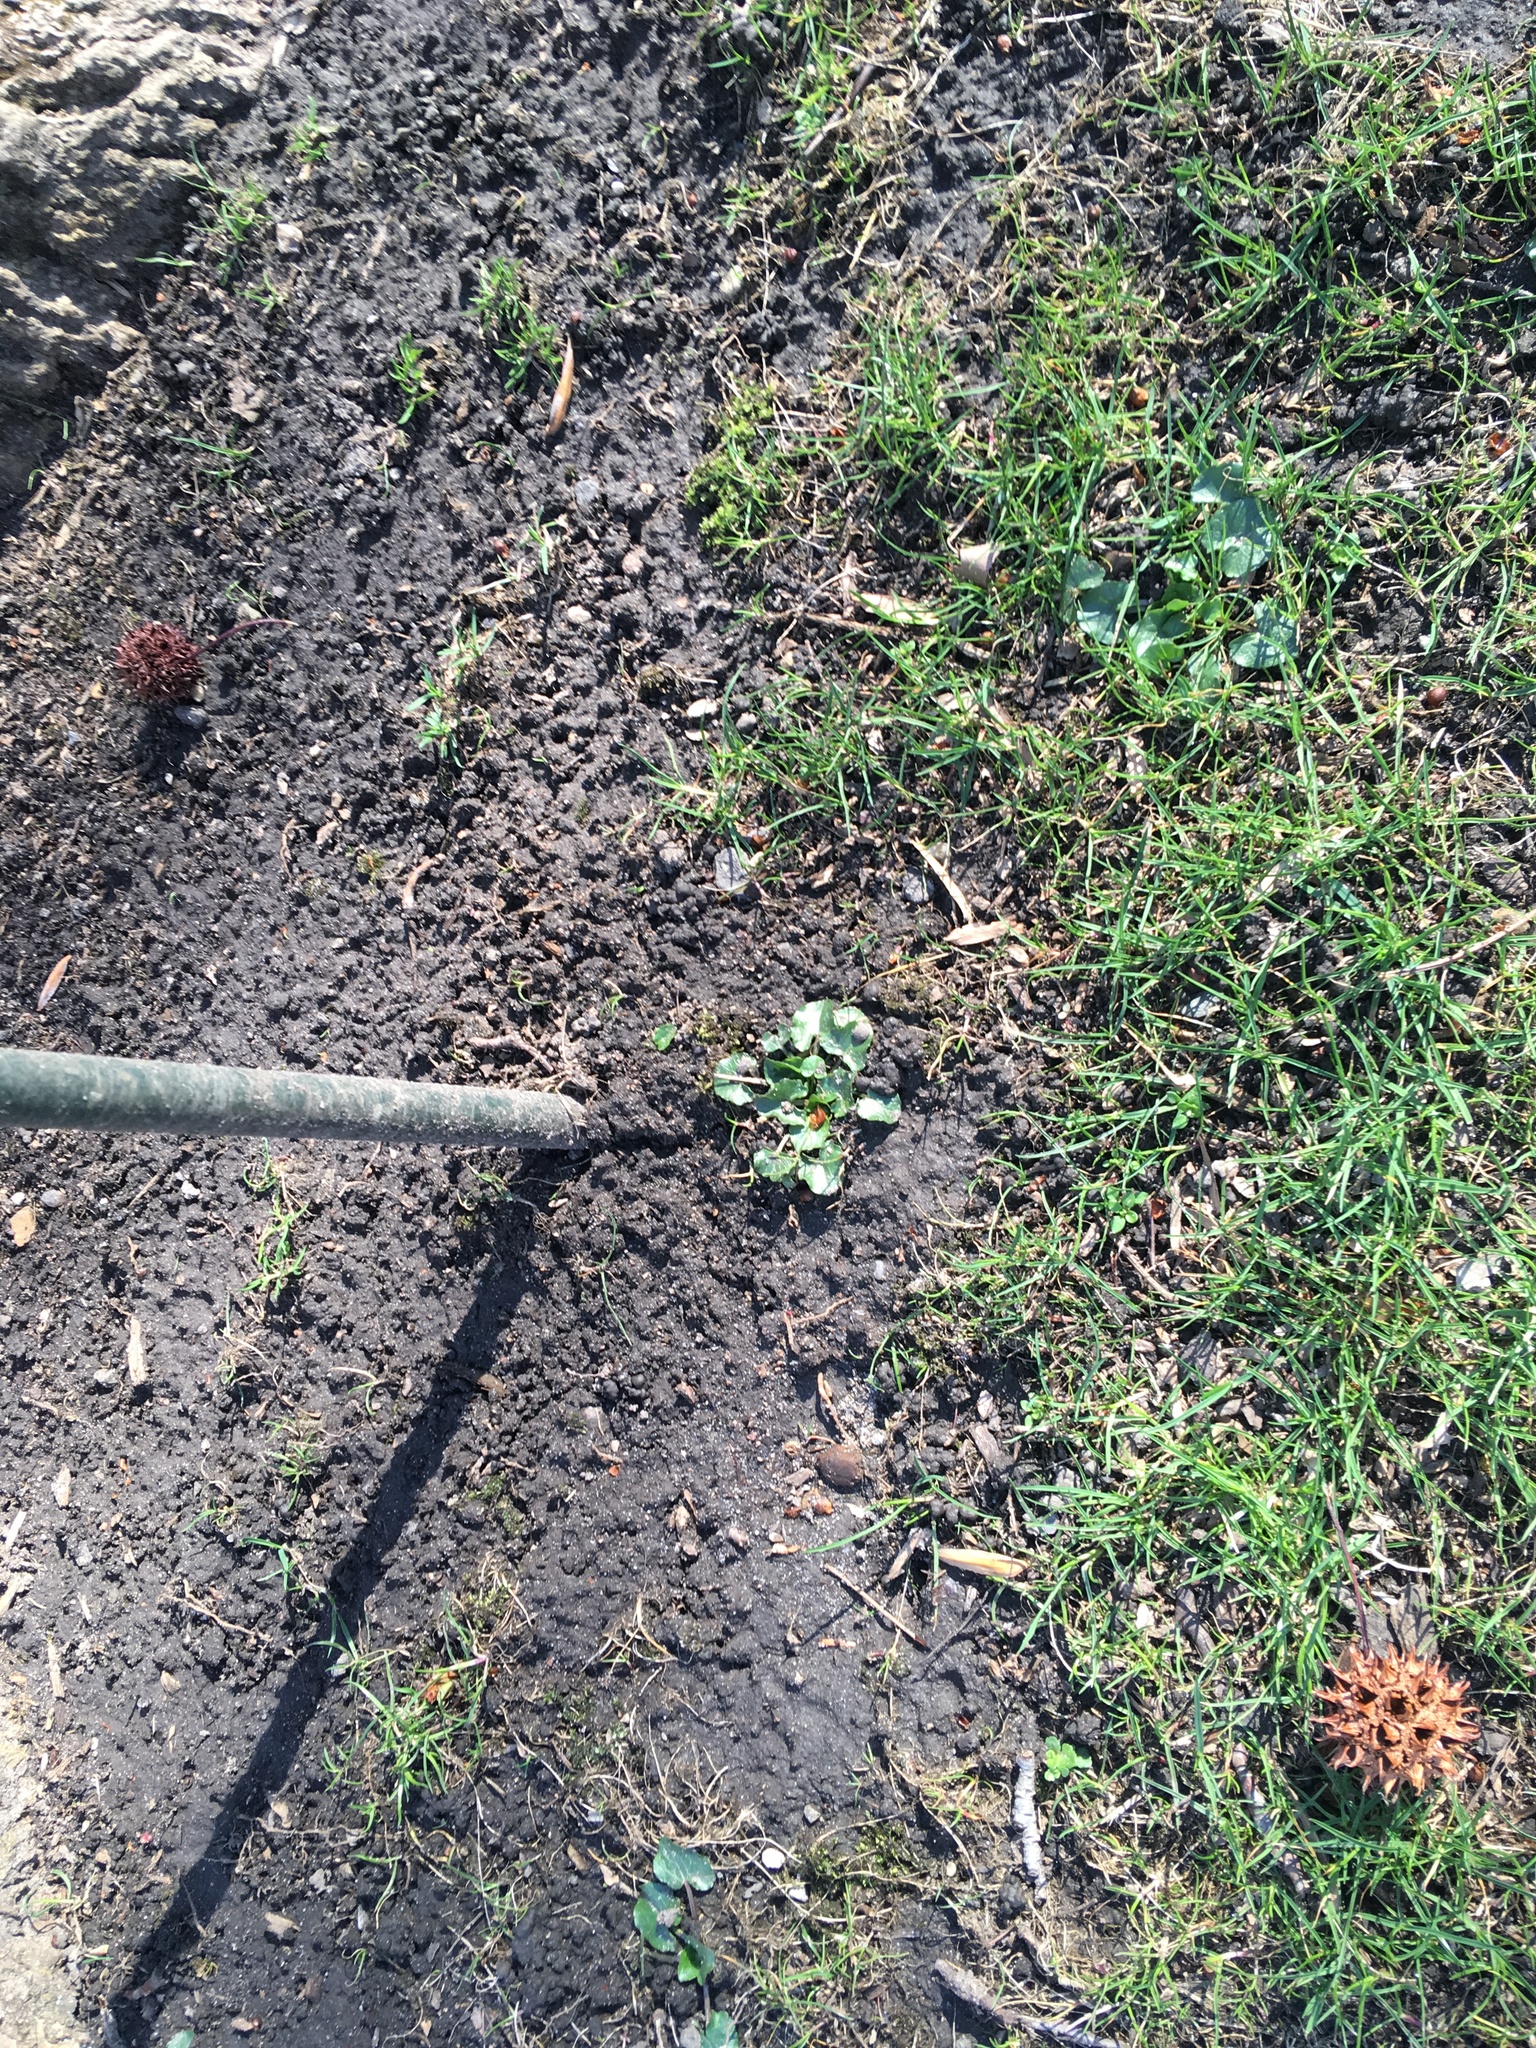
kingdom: Plantae
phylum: Tracheophyta
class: Magnoliopsida
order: Ranunculales
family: Ranunculaceae
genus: Ficaria
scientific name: Ficaria verna
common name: Lesser celandine
